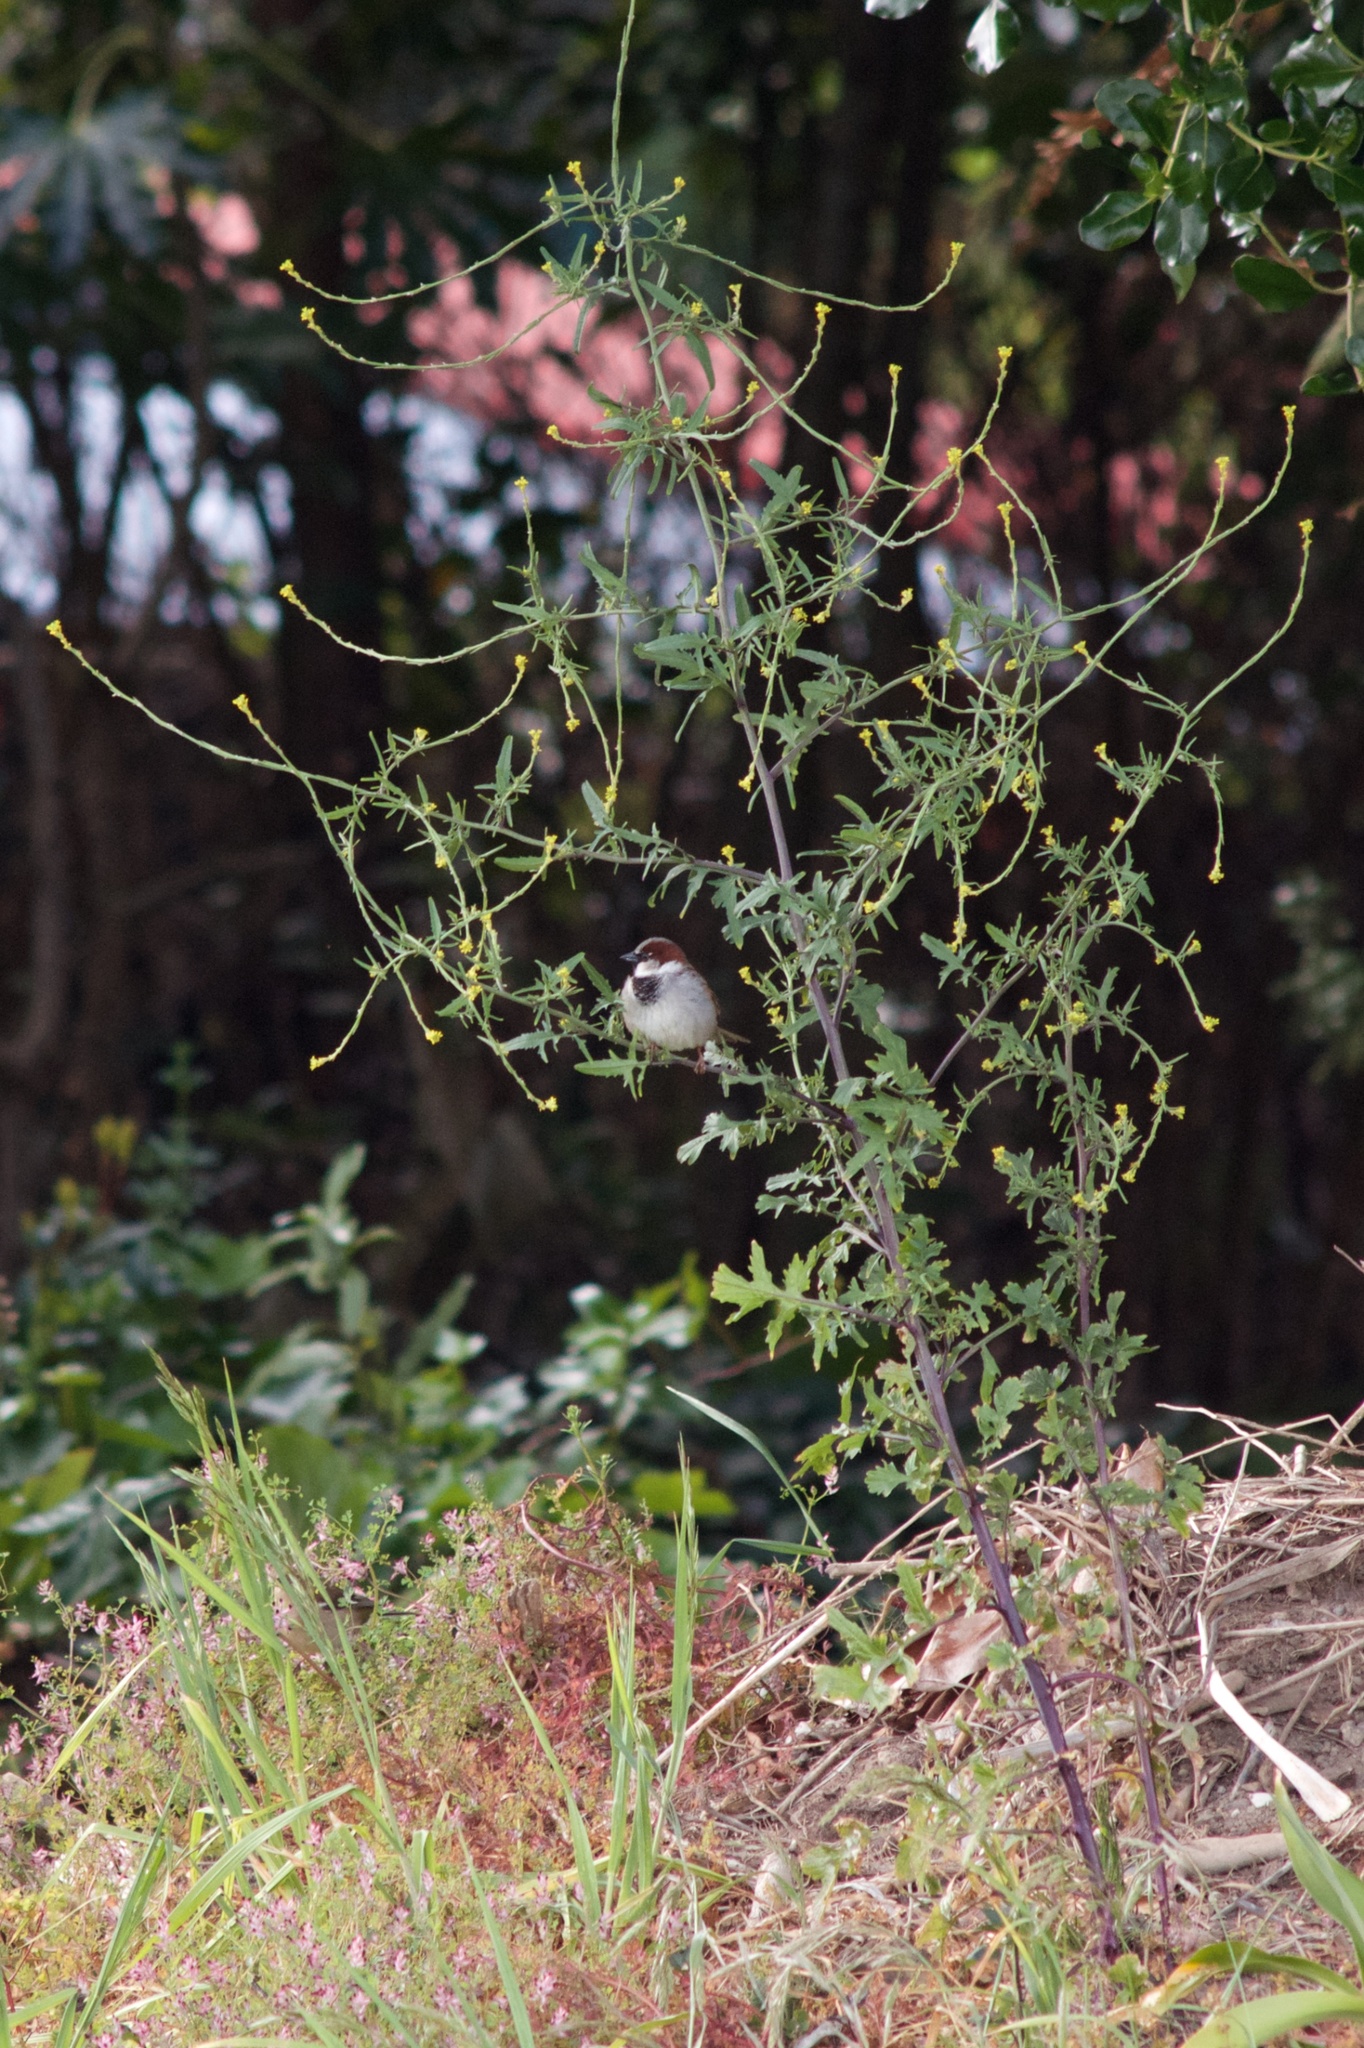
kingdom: Plantae
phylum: Tracheophyta
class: Magnoliopsida
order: Brassicales
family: Brassicaceae
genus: Sisymbrium
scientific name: Sisymbrium officinale
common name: Hedge mustard
